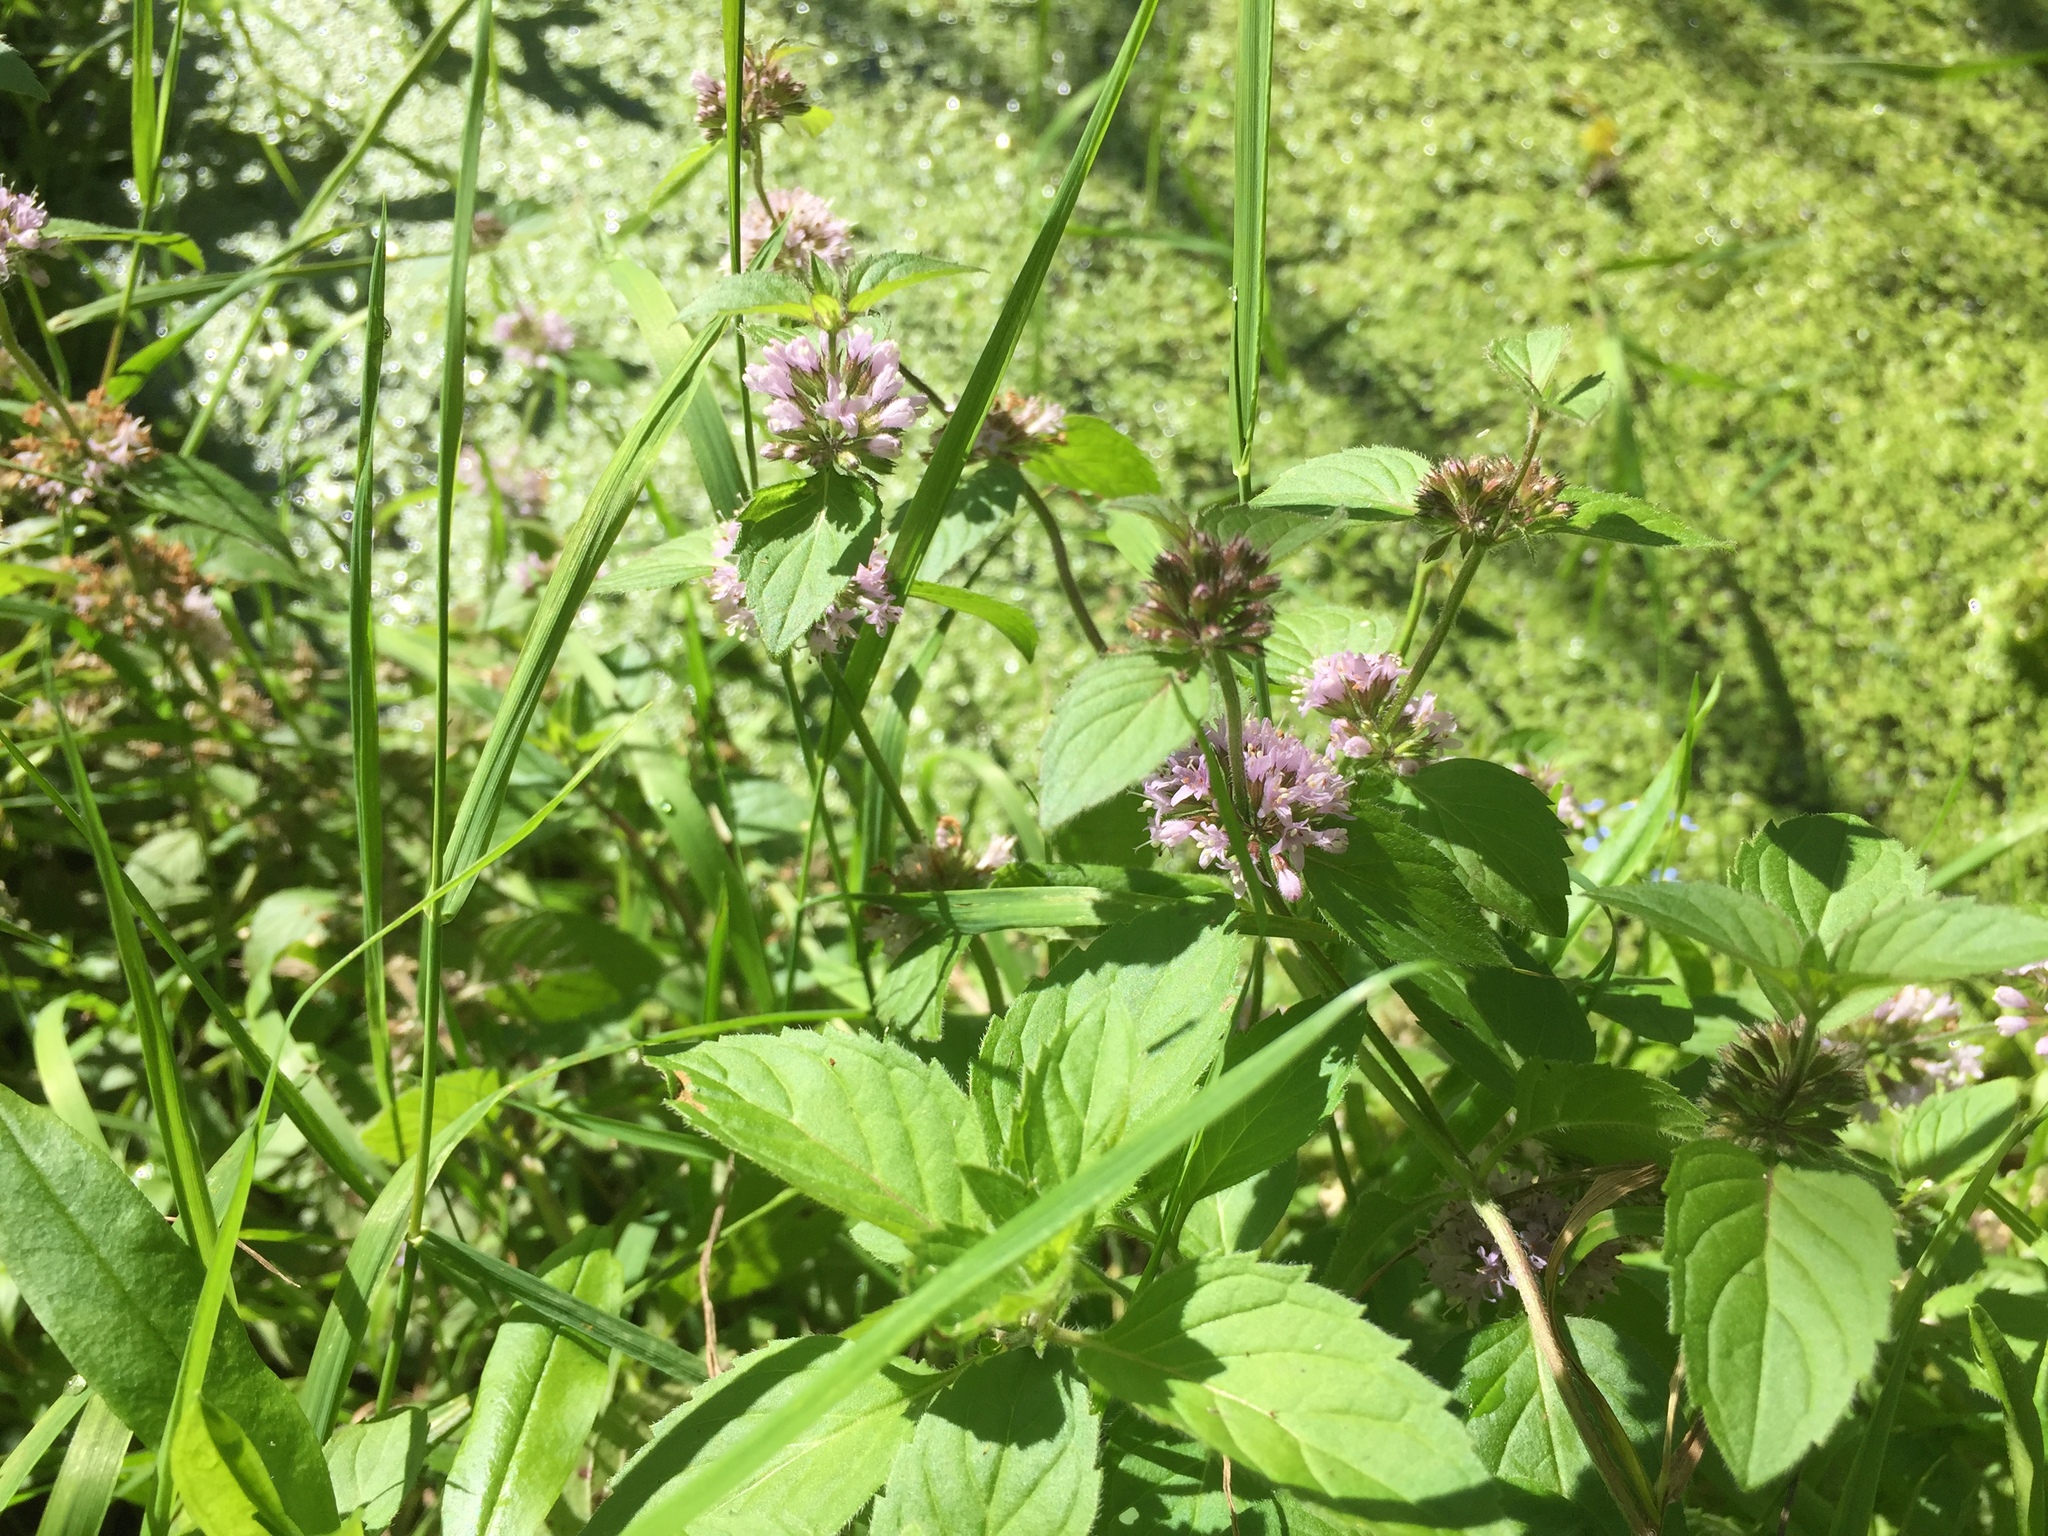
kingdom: Plantae
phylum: Tracheophyta
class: Magnoliopsida
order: Lamiales
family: Lamiaceae
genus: Mentha
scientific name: Mentha aquatica
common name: Water mint
